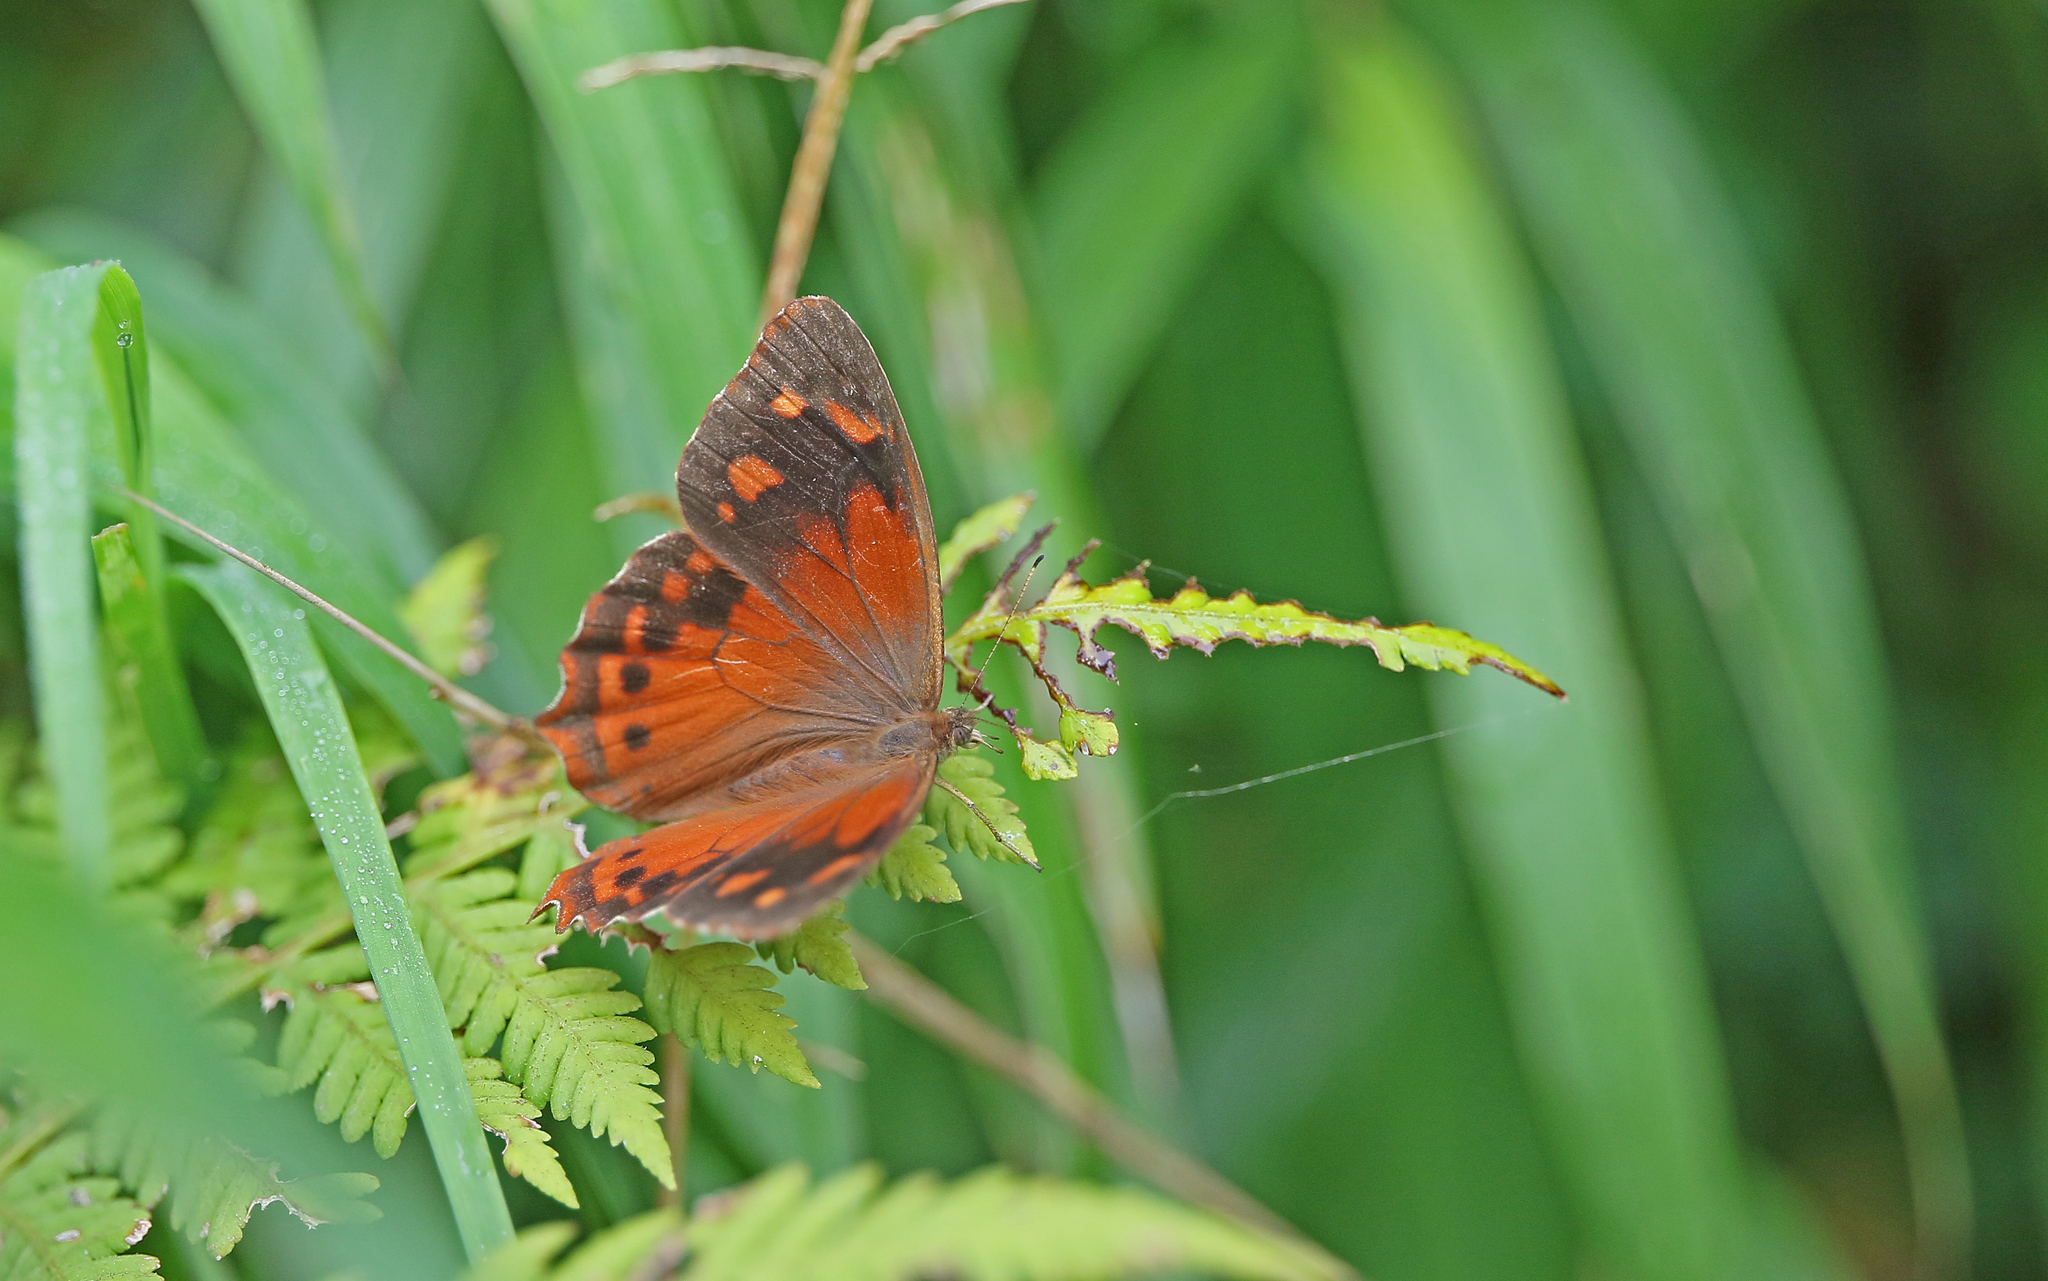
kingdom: Animalia
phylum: Arthropoda
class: Insecta
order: Lepidoptera
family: Nymphalidae
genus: Lasiophila
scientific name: Lasiophila orbifera
